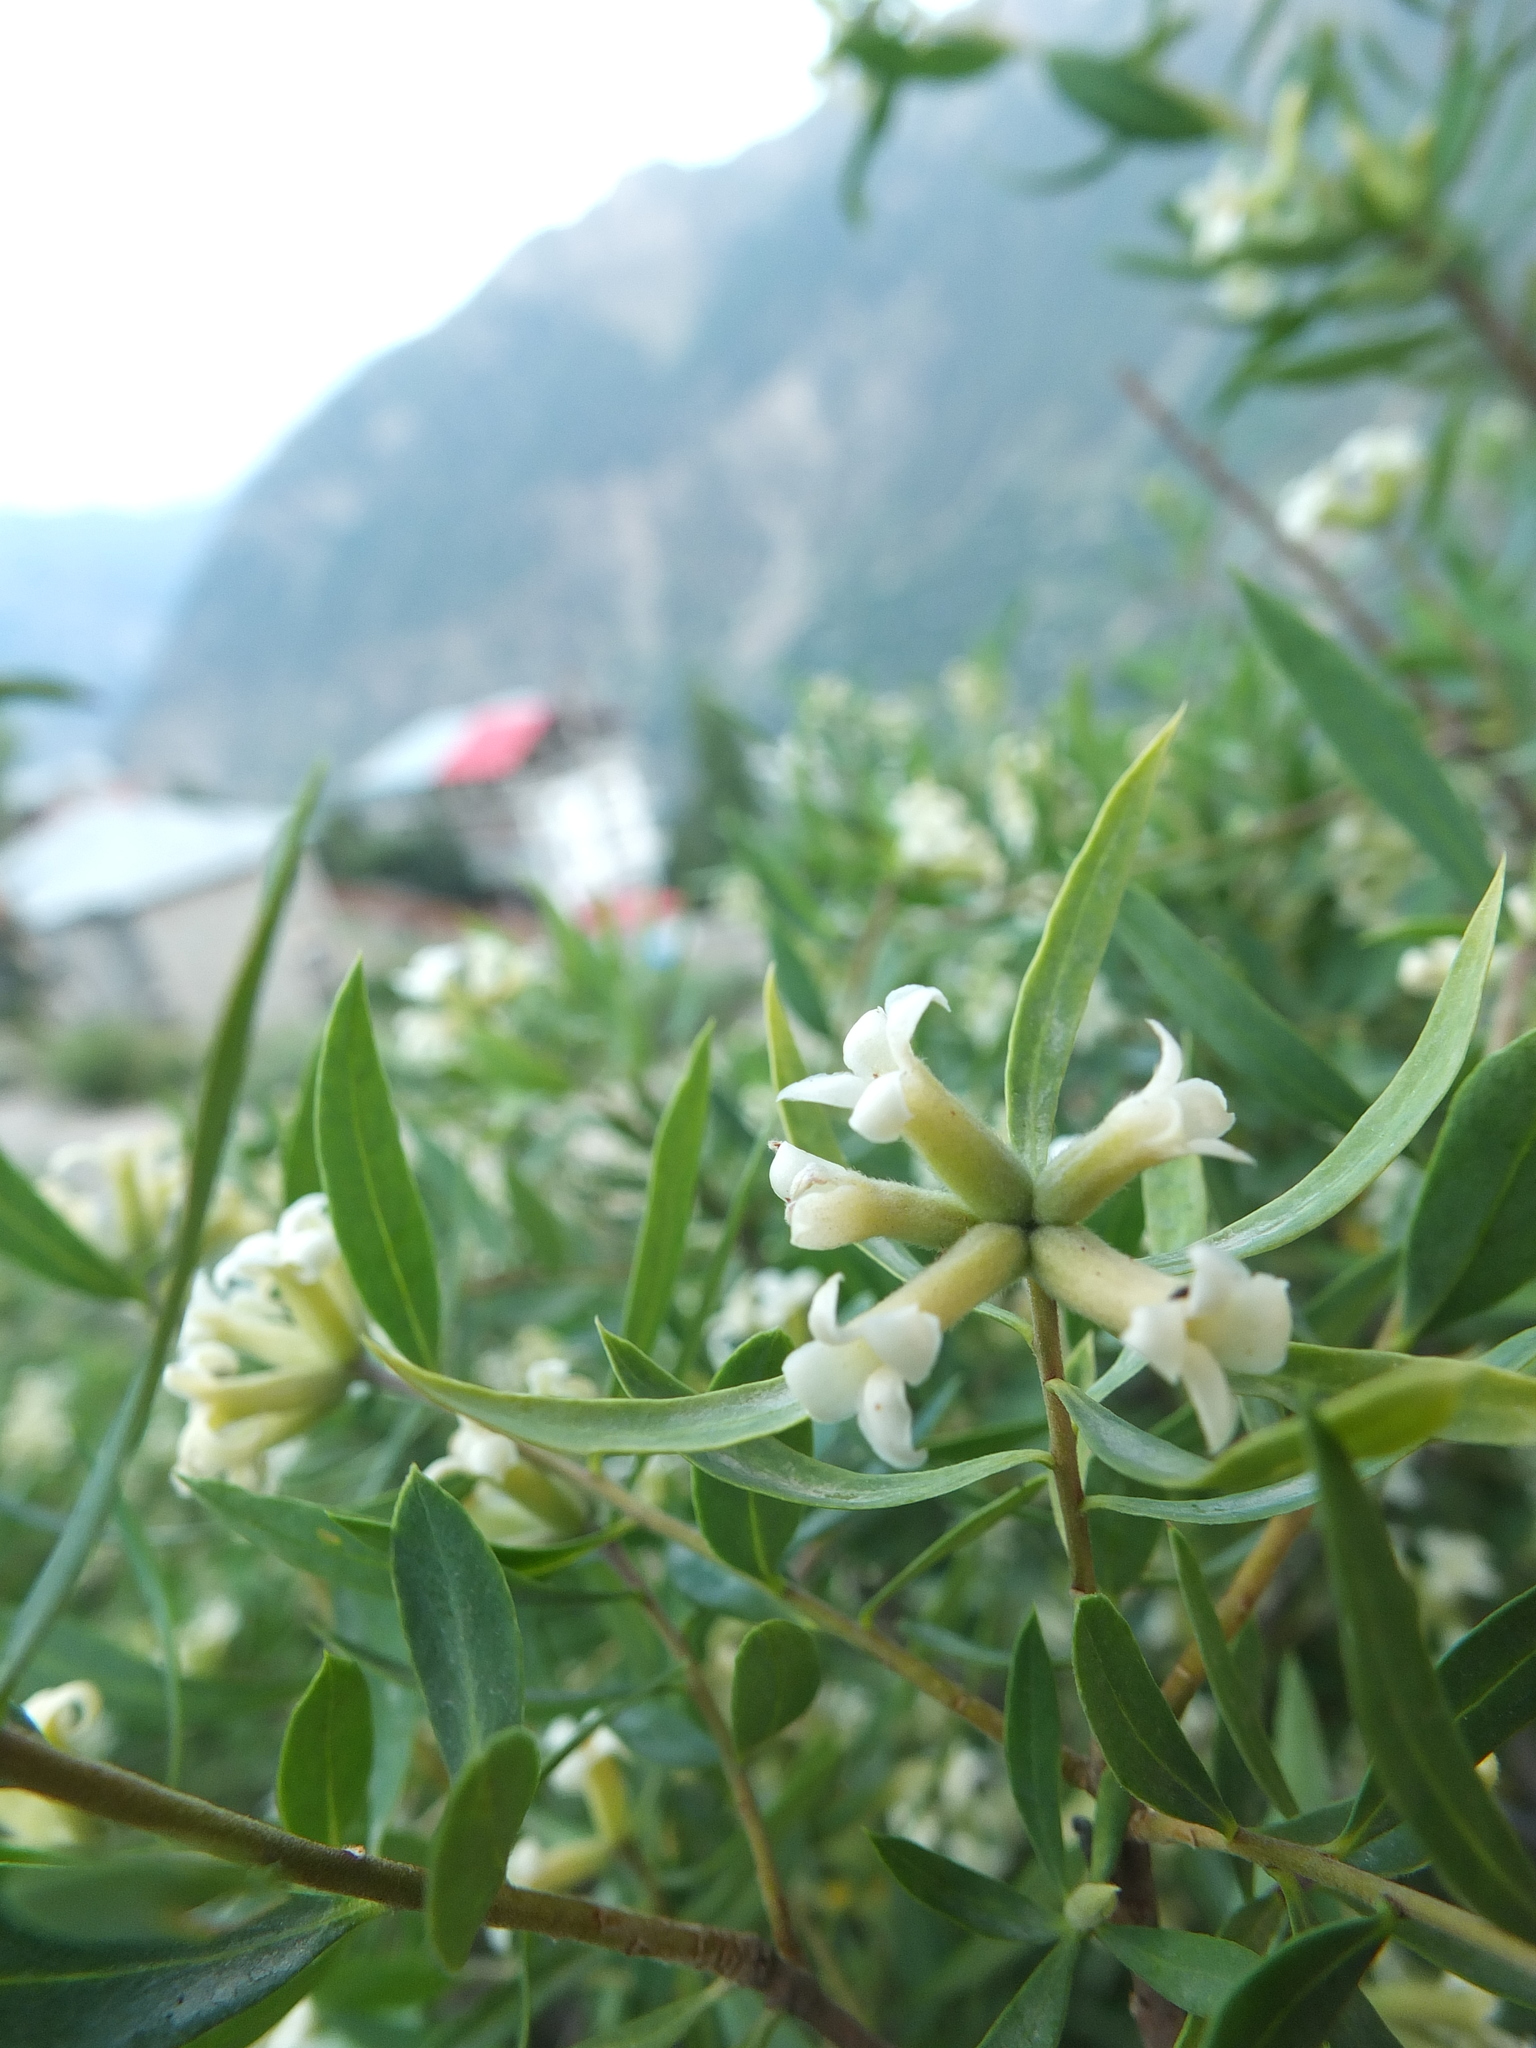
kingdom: Plantae
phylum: Tracheophyta
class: Magnoliopsida
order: Malvales
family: Thymelaeaceae
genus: Daphne
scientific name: Daphne mucronata
